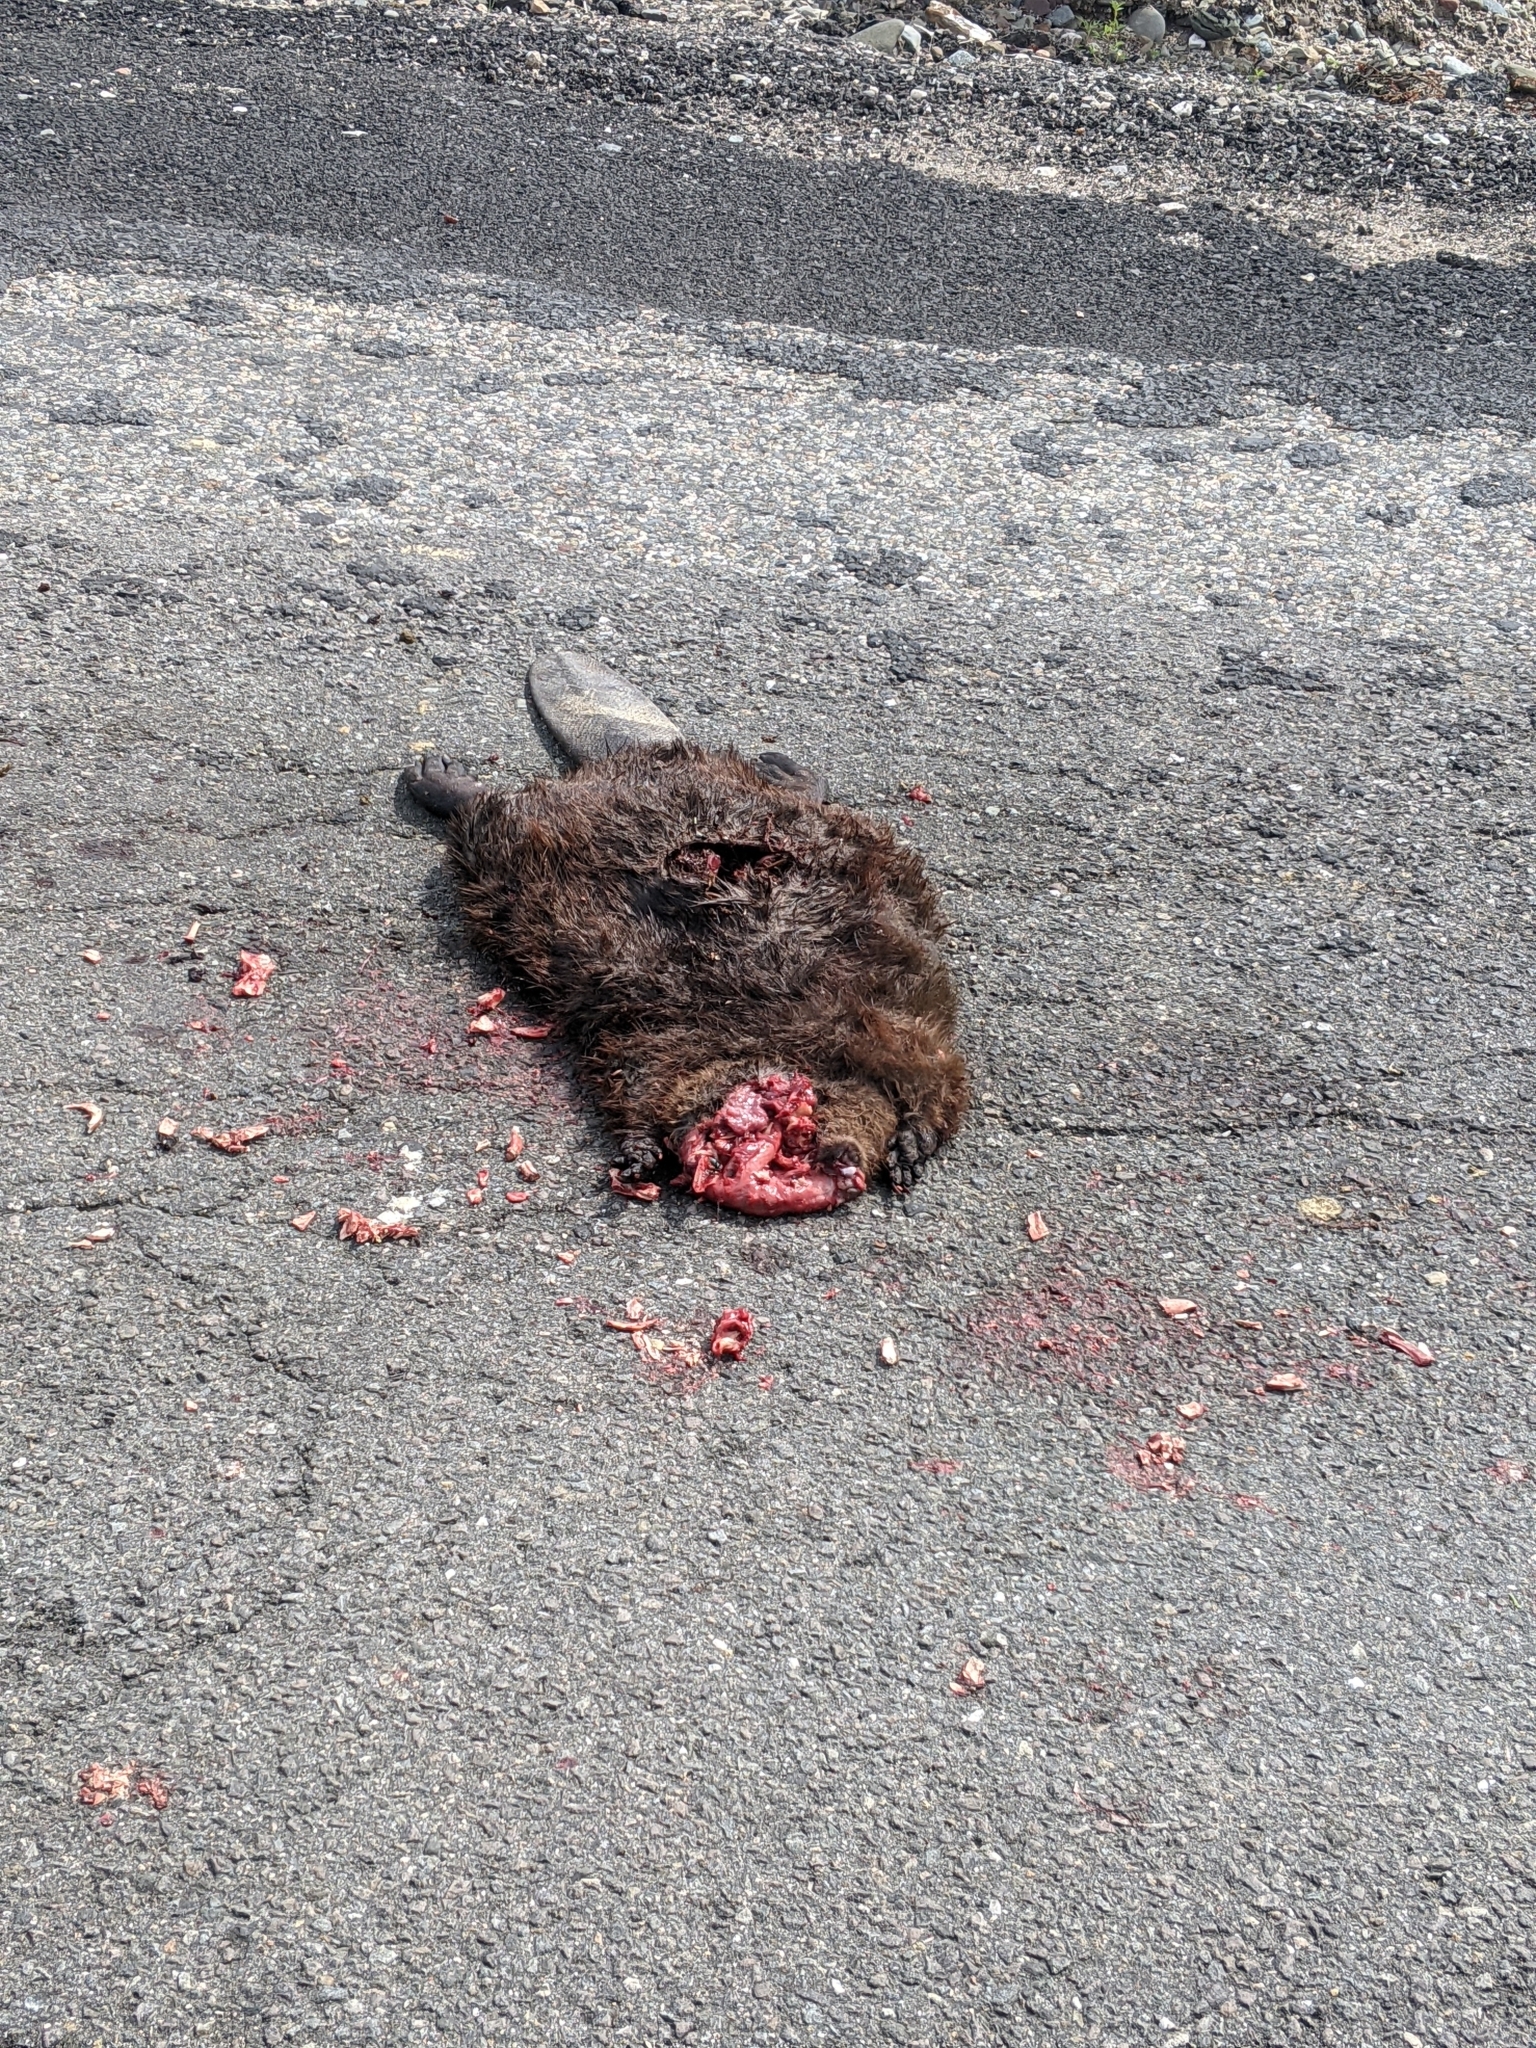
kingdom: Animalia
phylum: Chordata
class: Mammalia
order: Rodentia
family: Castoridae
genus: Castor
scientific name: Castor canadensis
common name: American beaver
